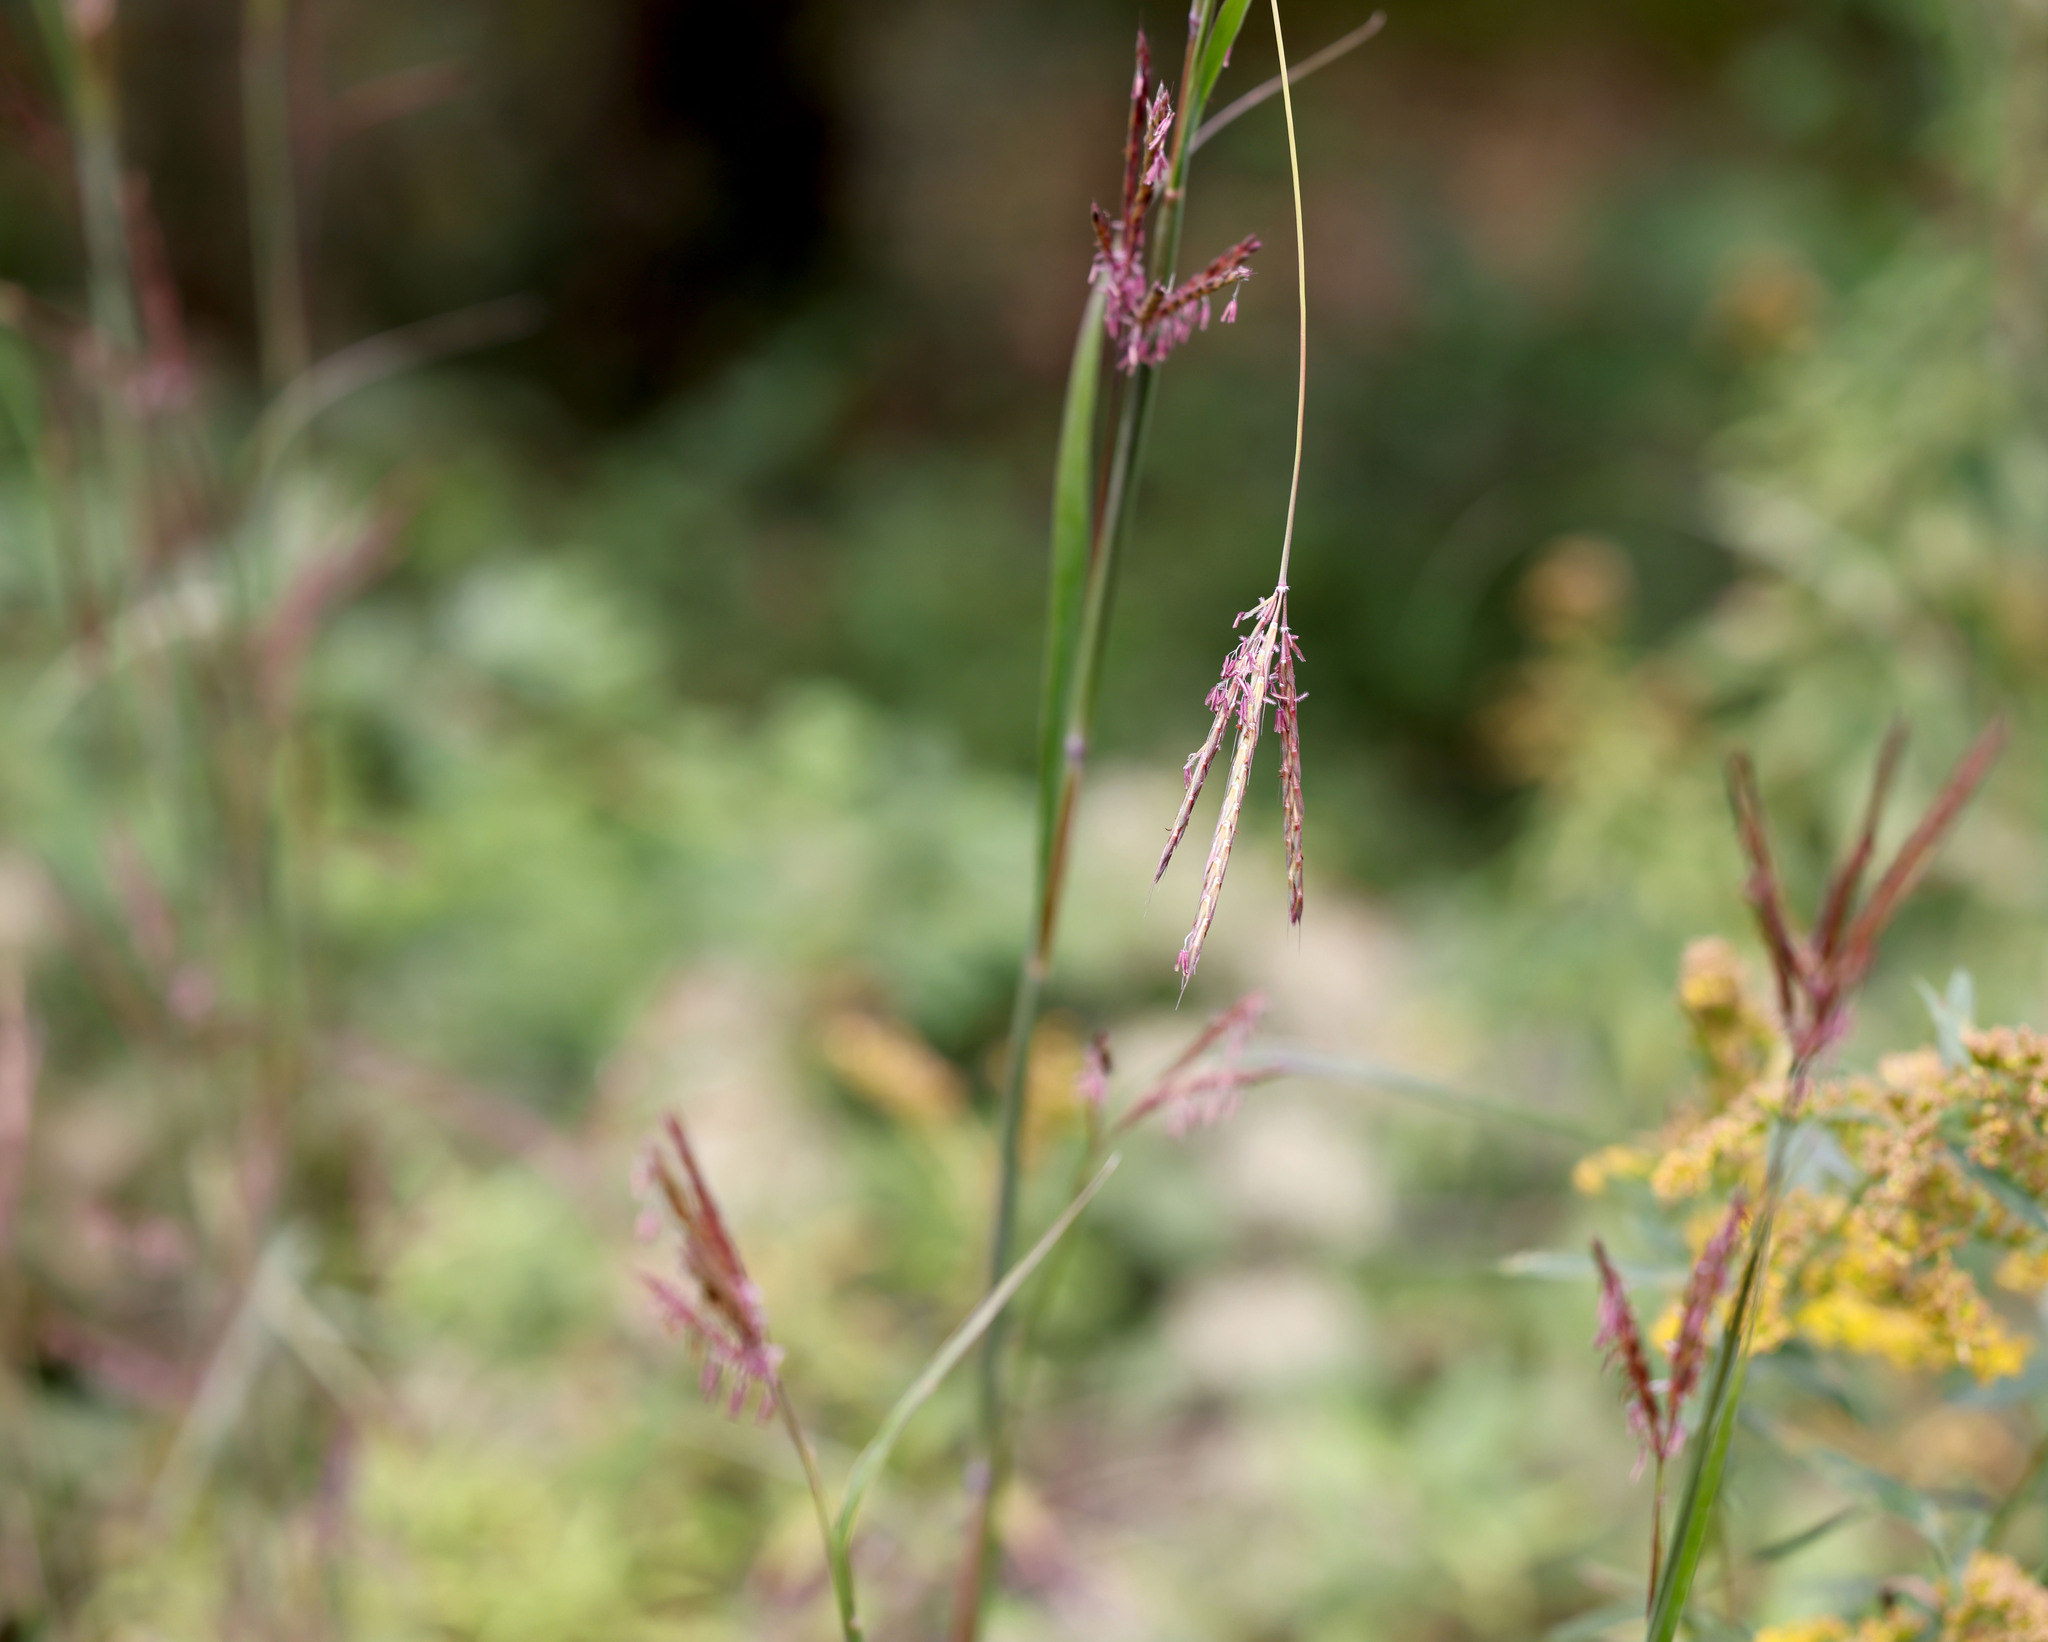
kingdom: Plantae
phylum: Tracheophyta
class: Liliopsida
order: Poales
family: Poaceae
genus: Andropogon
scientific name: Andropogon gerardi
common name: Big bluestem
